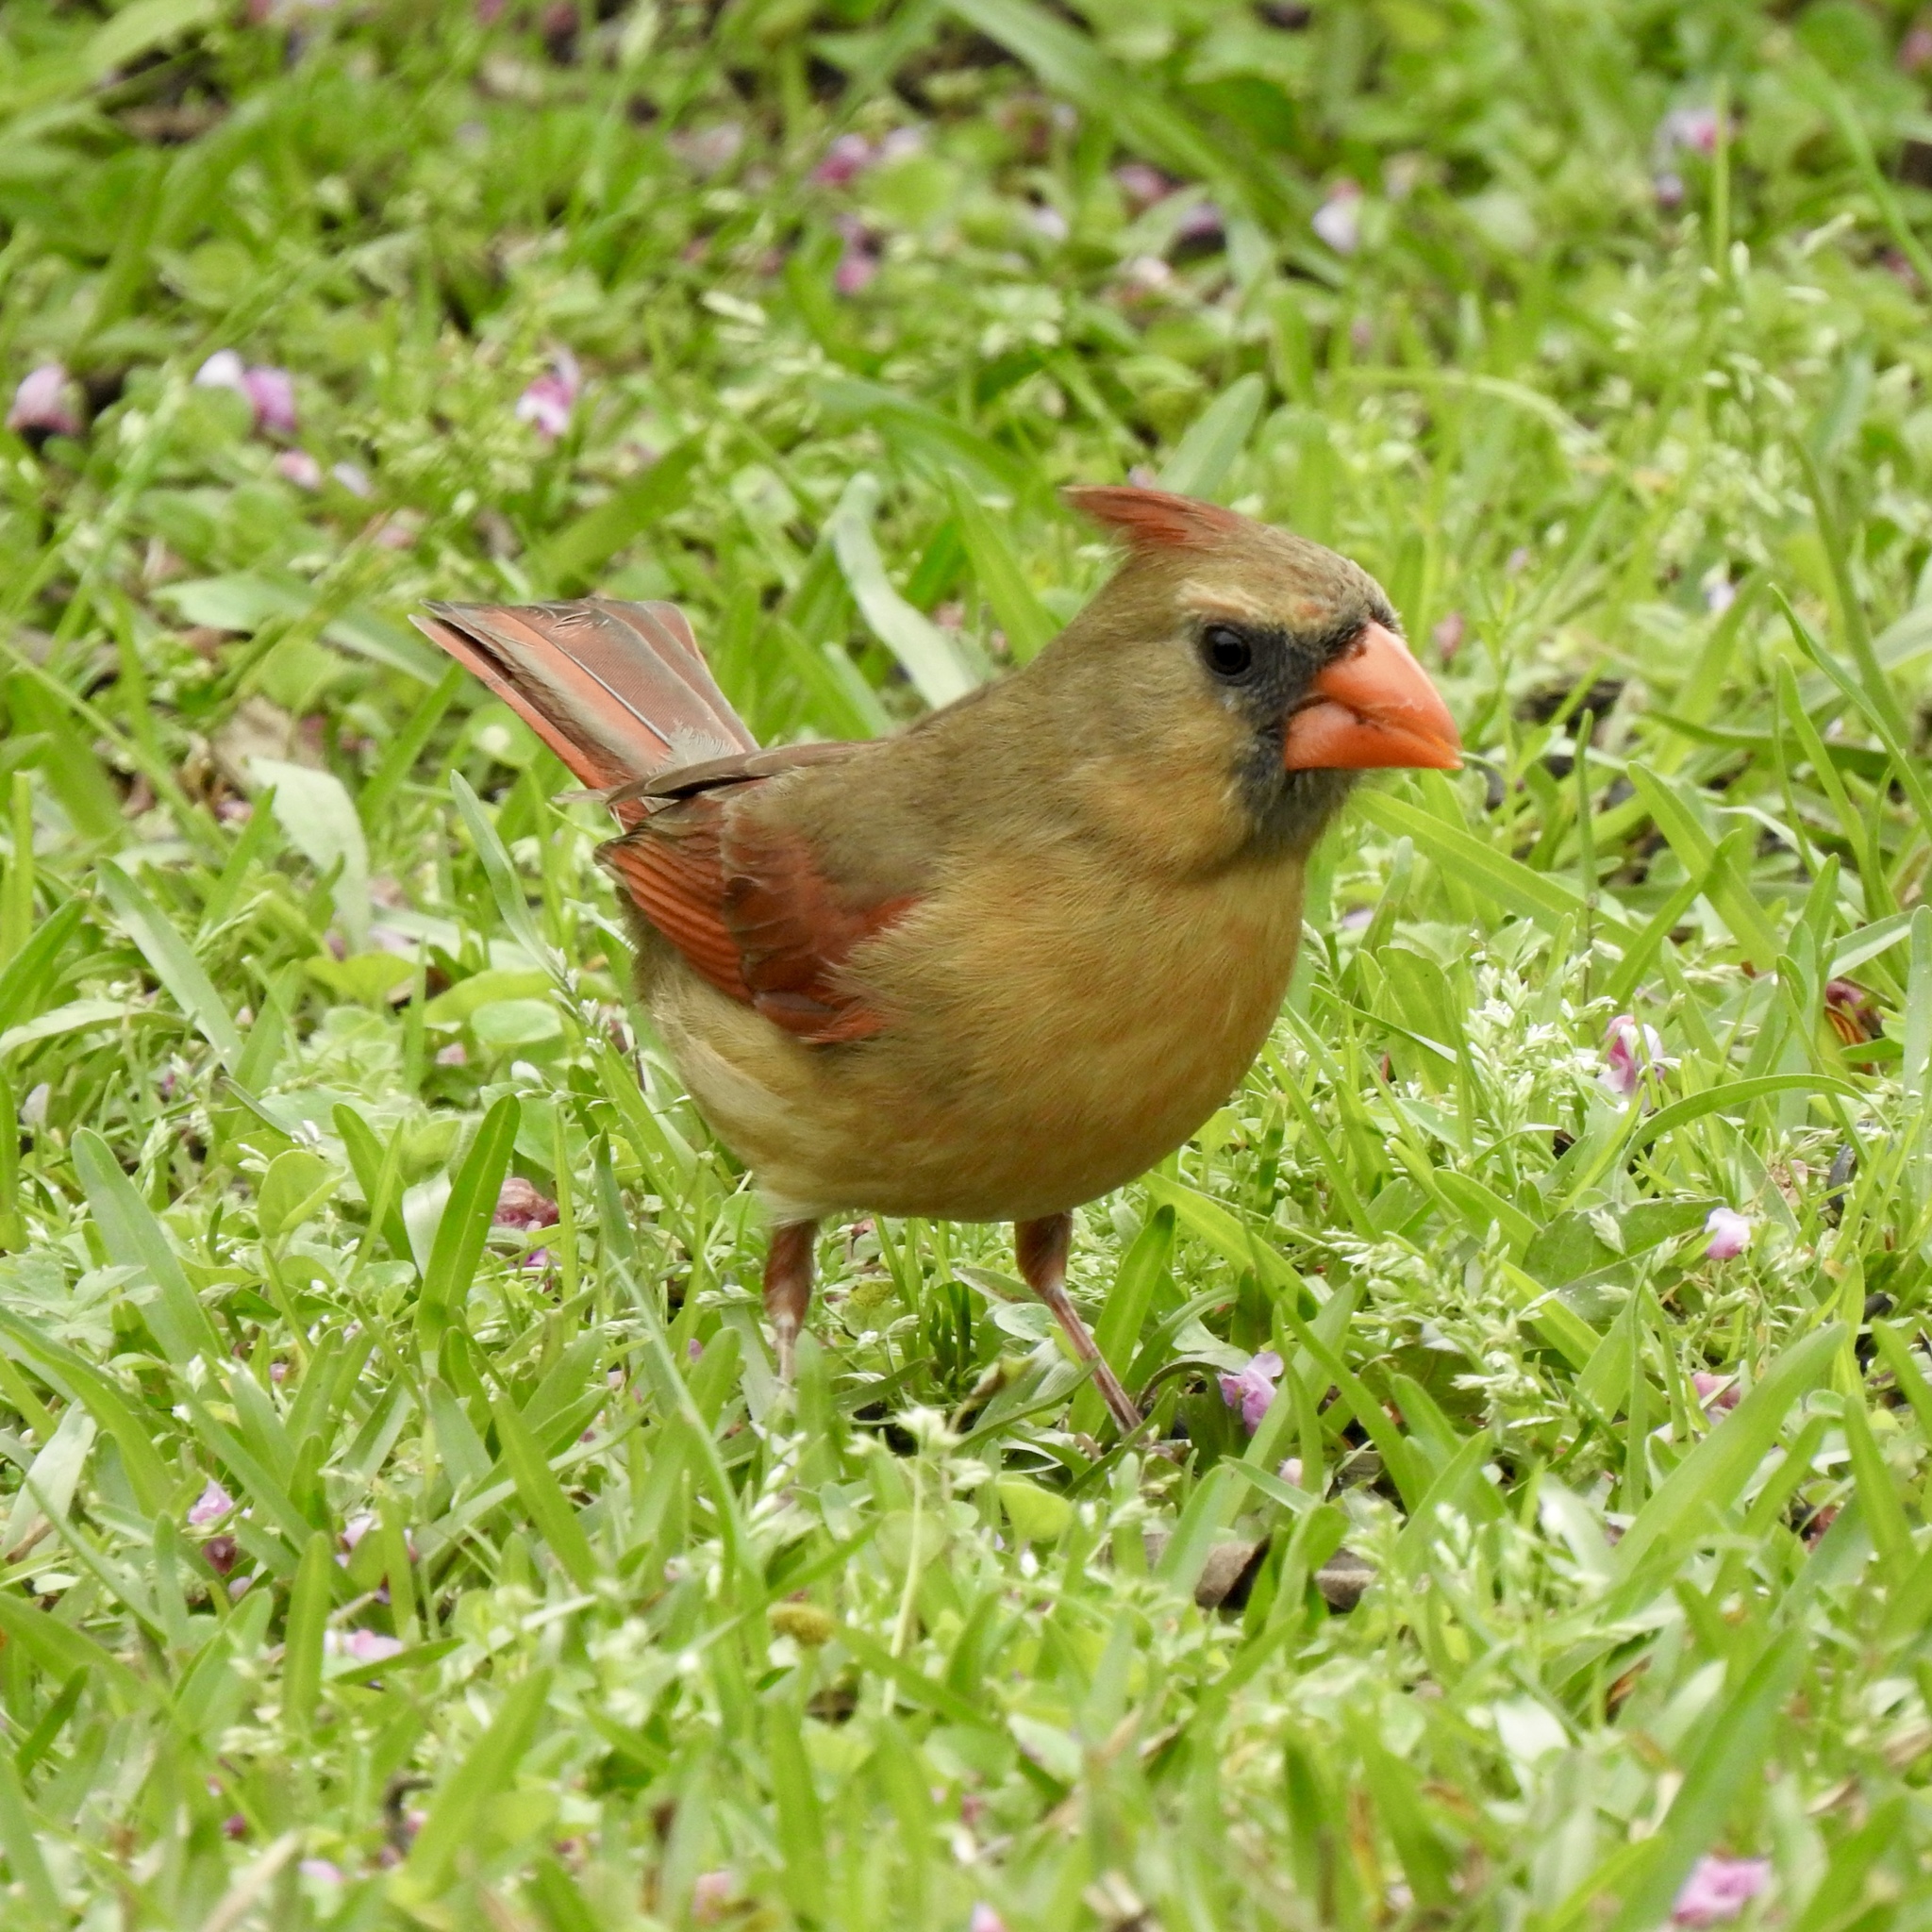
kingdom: Animalia
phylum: Chordata
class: Aves
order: Passeriformes
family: Cardinalidae
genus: Cardinalis
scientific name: Cardinalis cardinalis
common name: Northern cardinal
